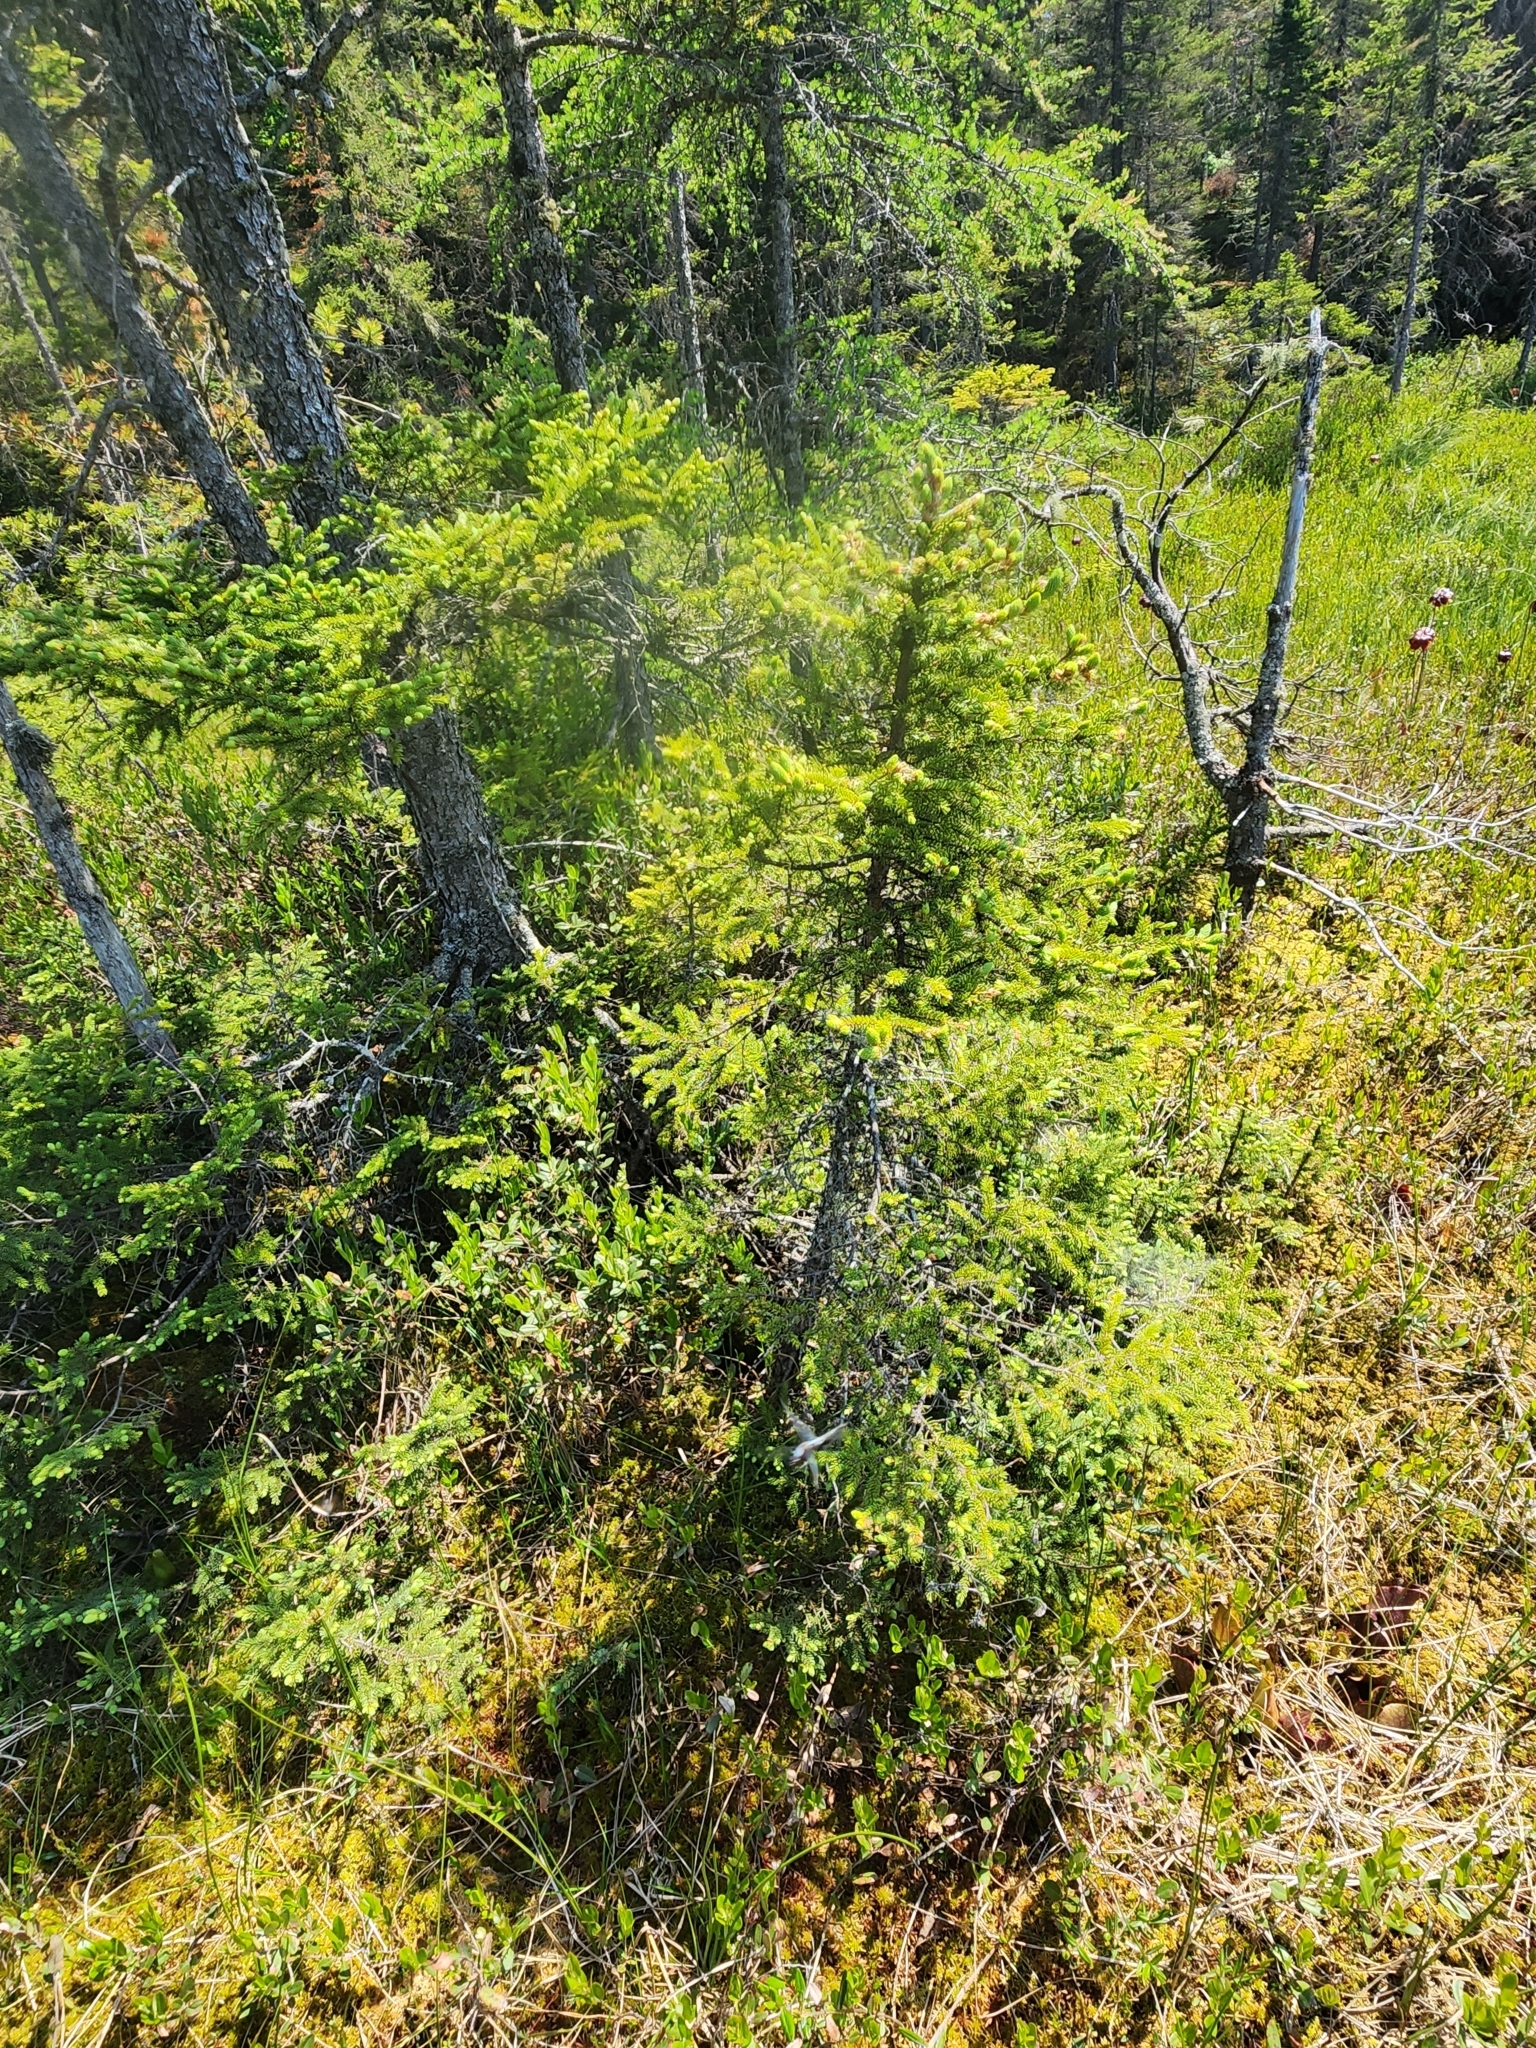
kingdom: Plantae
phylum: Tracheophyta
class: Pinopsida
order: Pinales
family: Pinaceae
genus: Picea
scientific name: Picea mariana
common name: Black spruce
